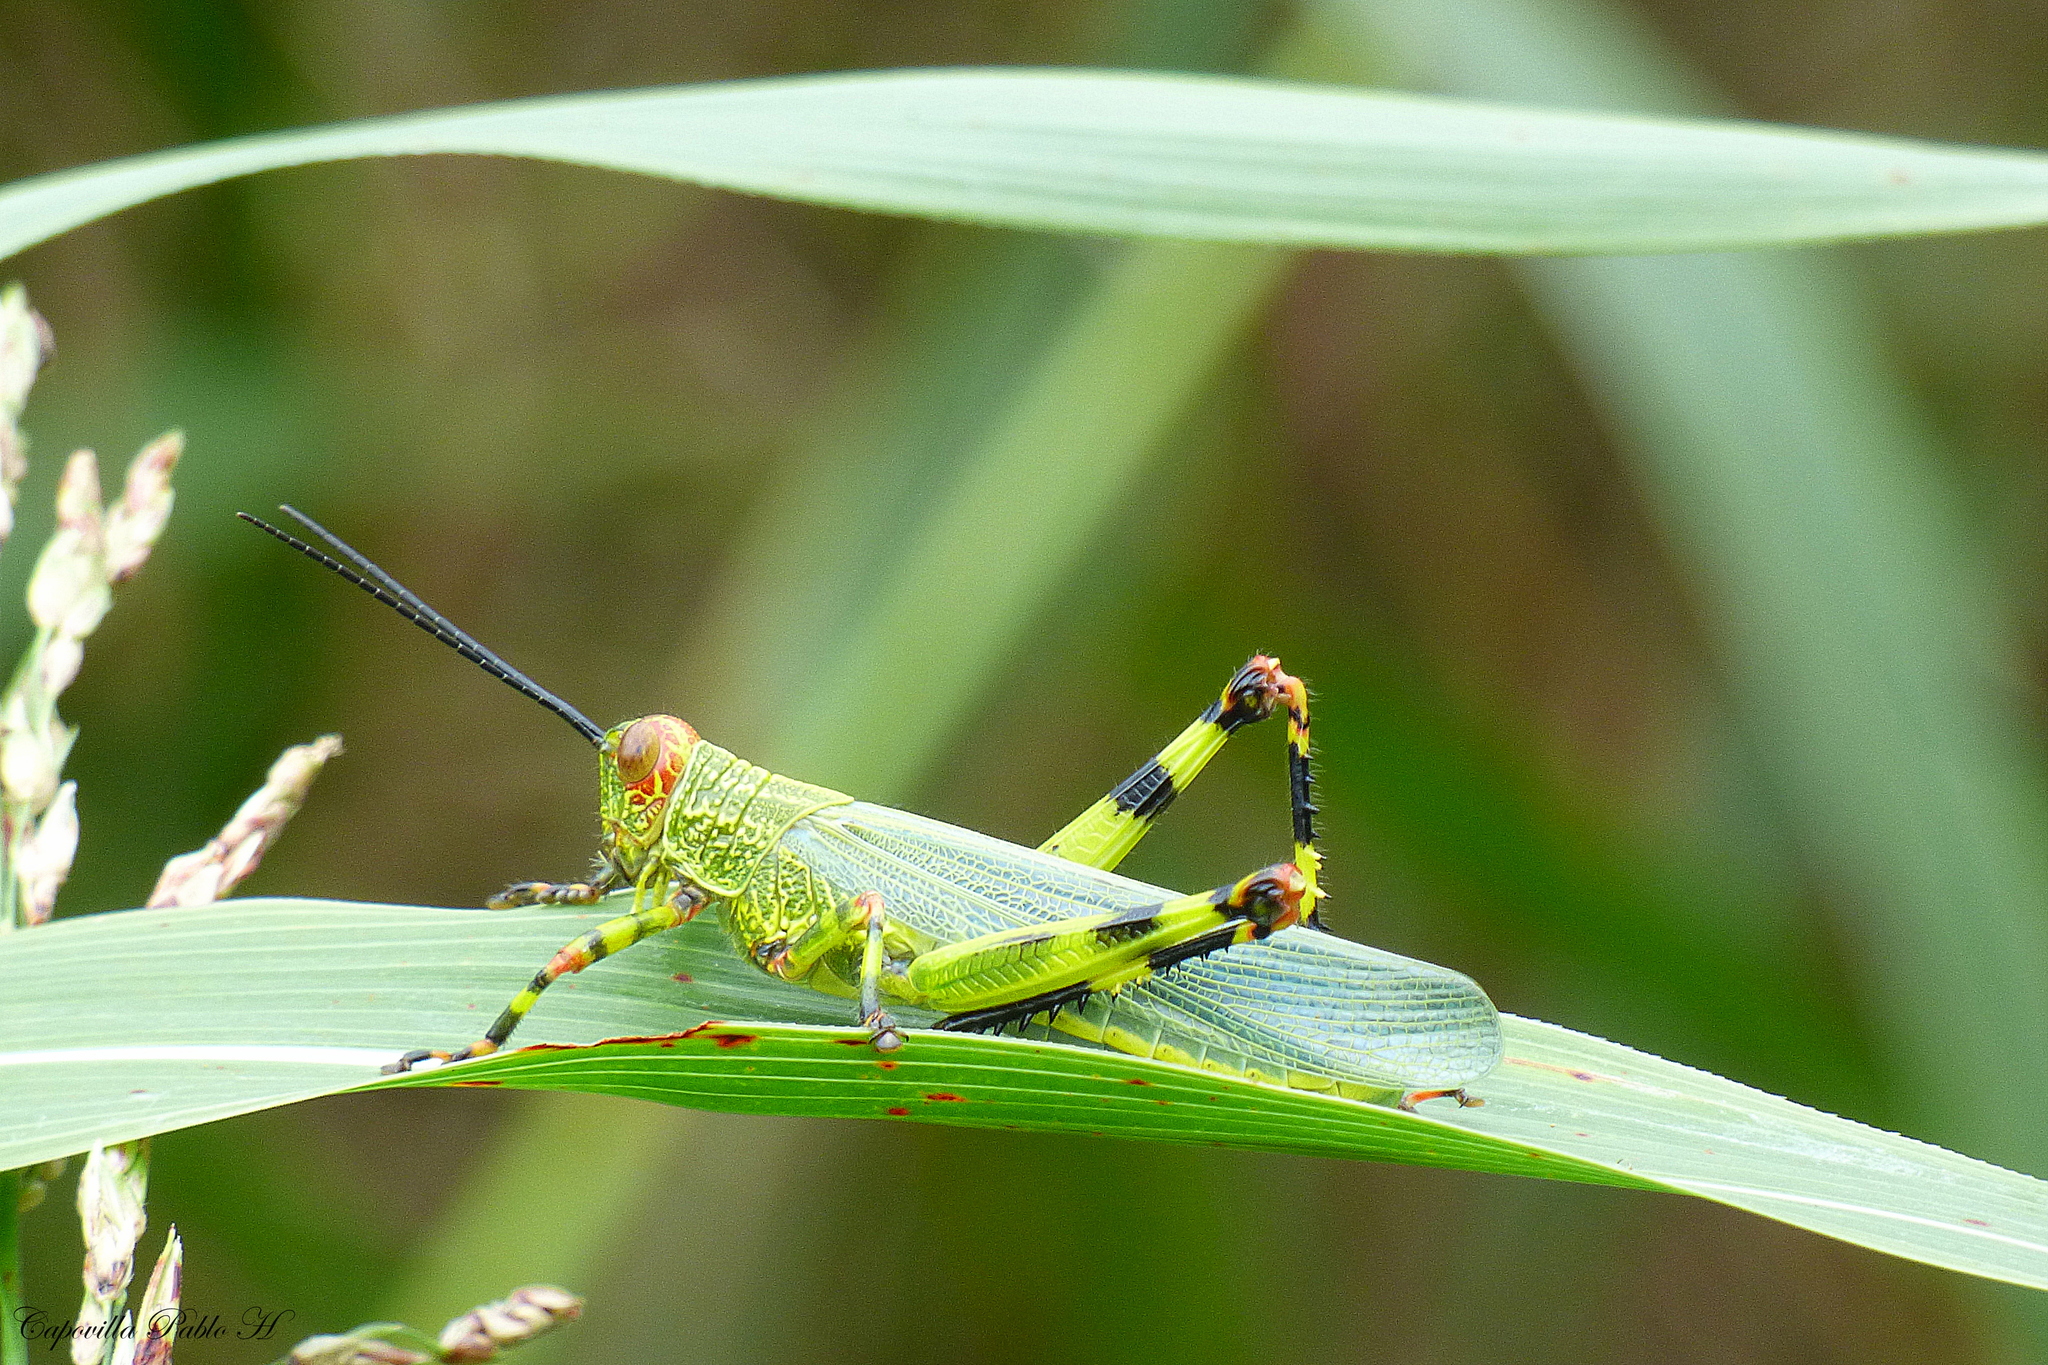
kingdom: Animalia
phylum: Arthropoda
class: Insecta
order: Orthoptera
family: Romaleidae
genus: Zoniopoda
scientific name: Zoniopoda tarsata
